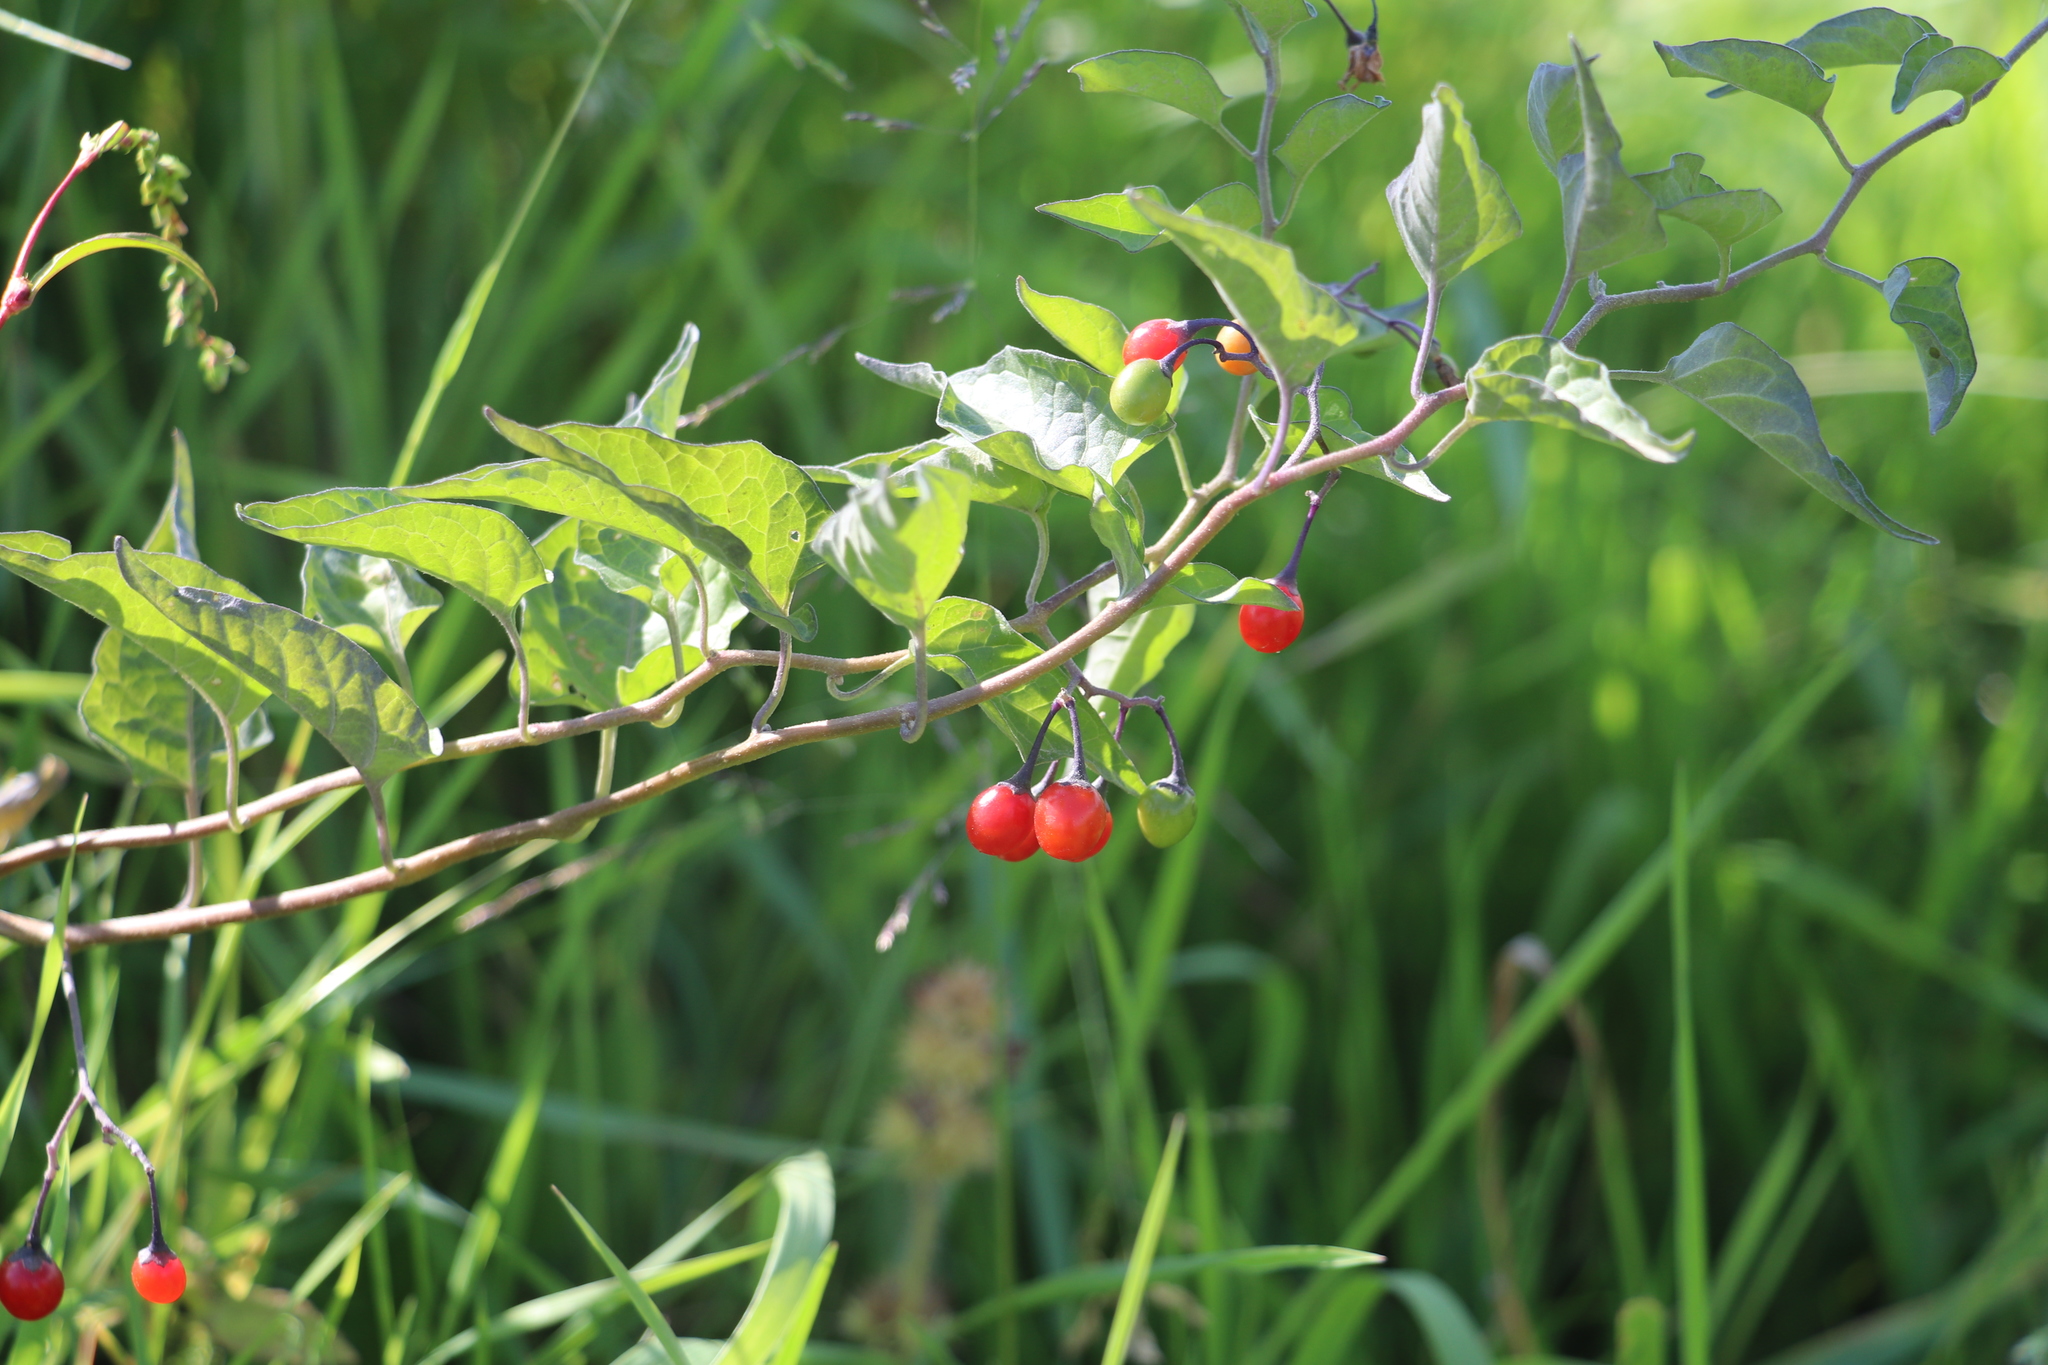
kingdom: Plantae
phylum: Tracheophyta
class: Magnoliopsida
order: Solanales
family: Solanaceae
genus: Solanum
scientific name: Solanum dulcamara
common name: Climbing nightshade
